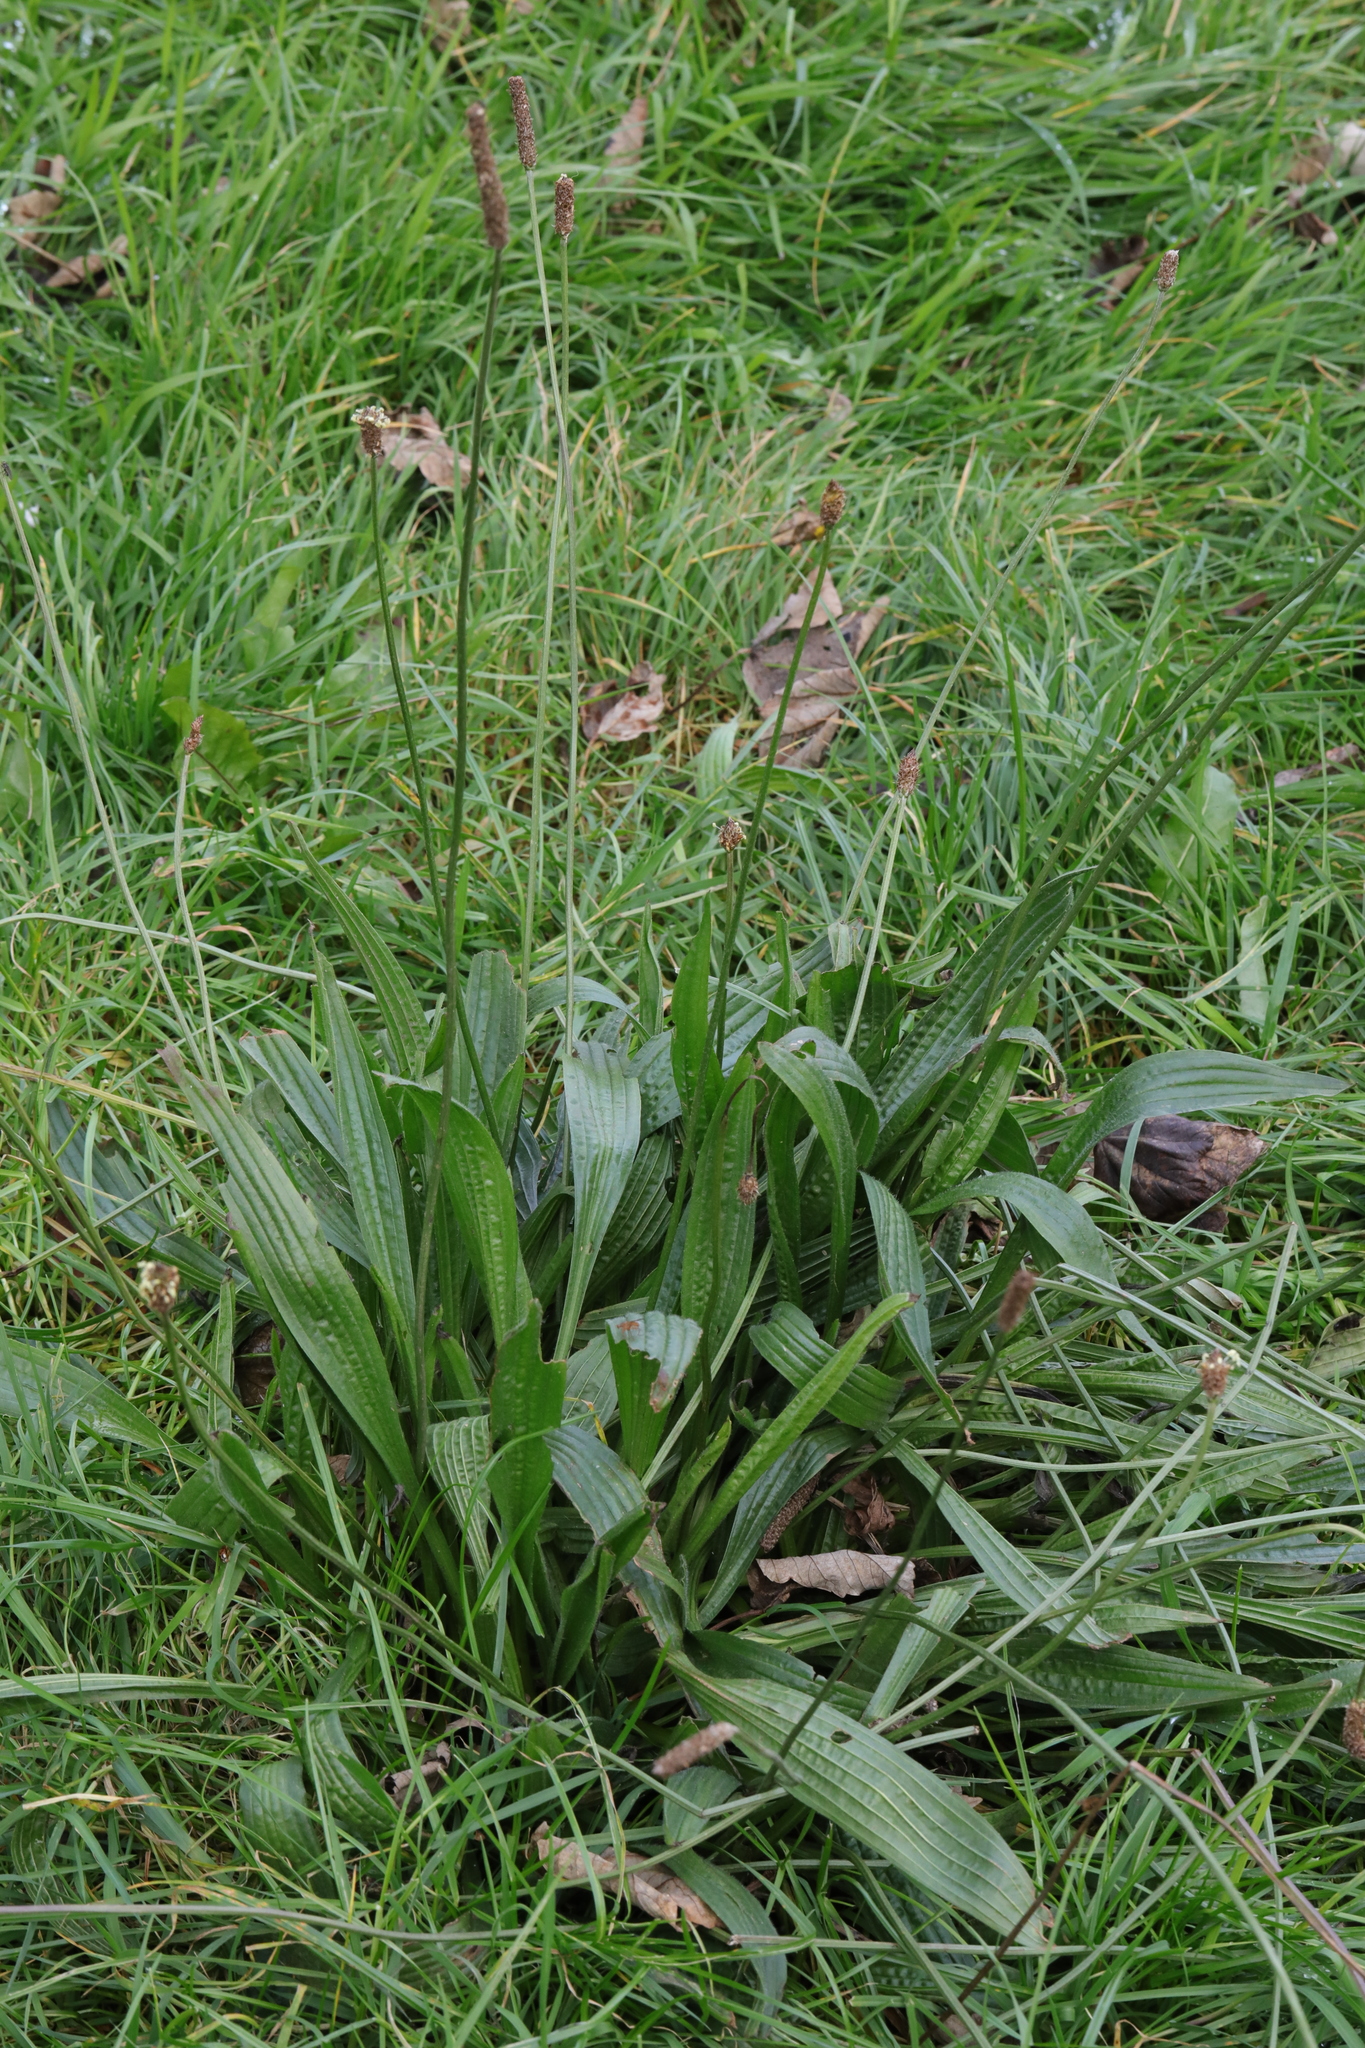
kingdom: Plantae
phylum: Tracheophyta
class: Magnoliopsida
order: Lamiales
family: Plantaginaceae
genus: Plantago
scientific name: Plantago lanceolata
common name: Ribwort plantain
